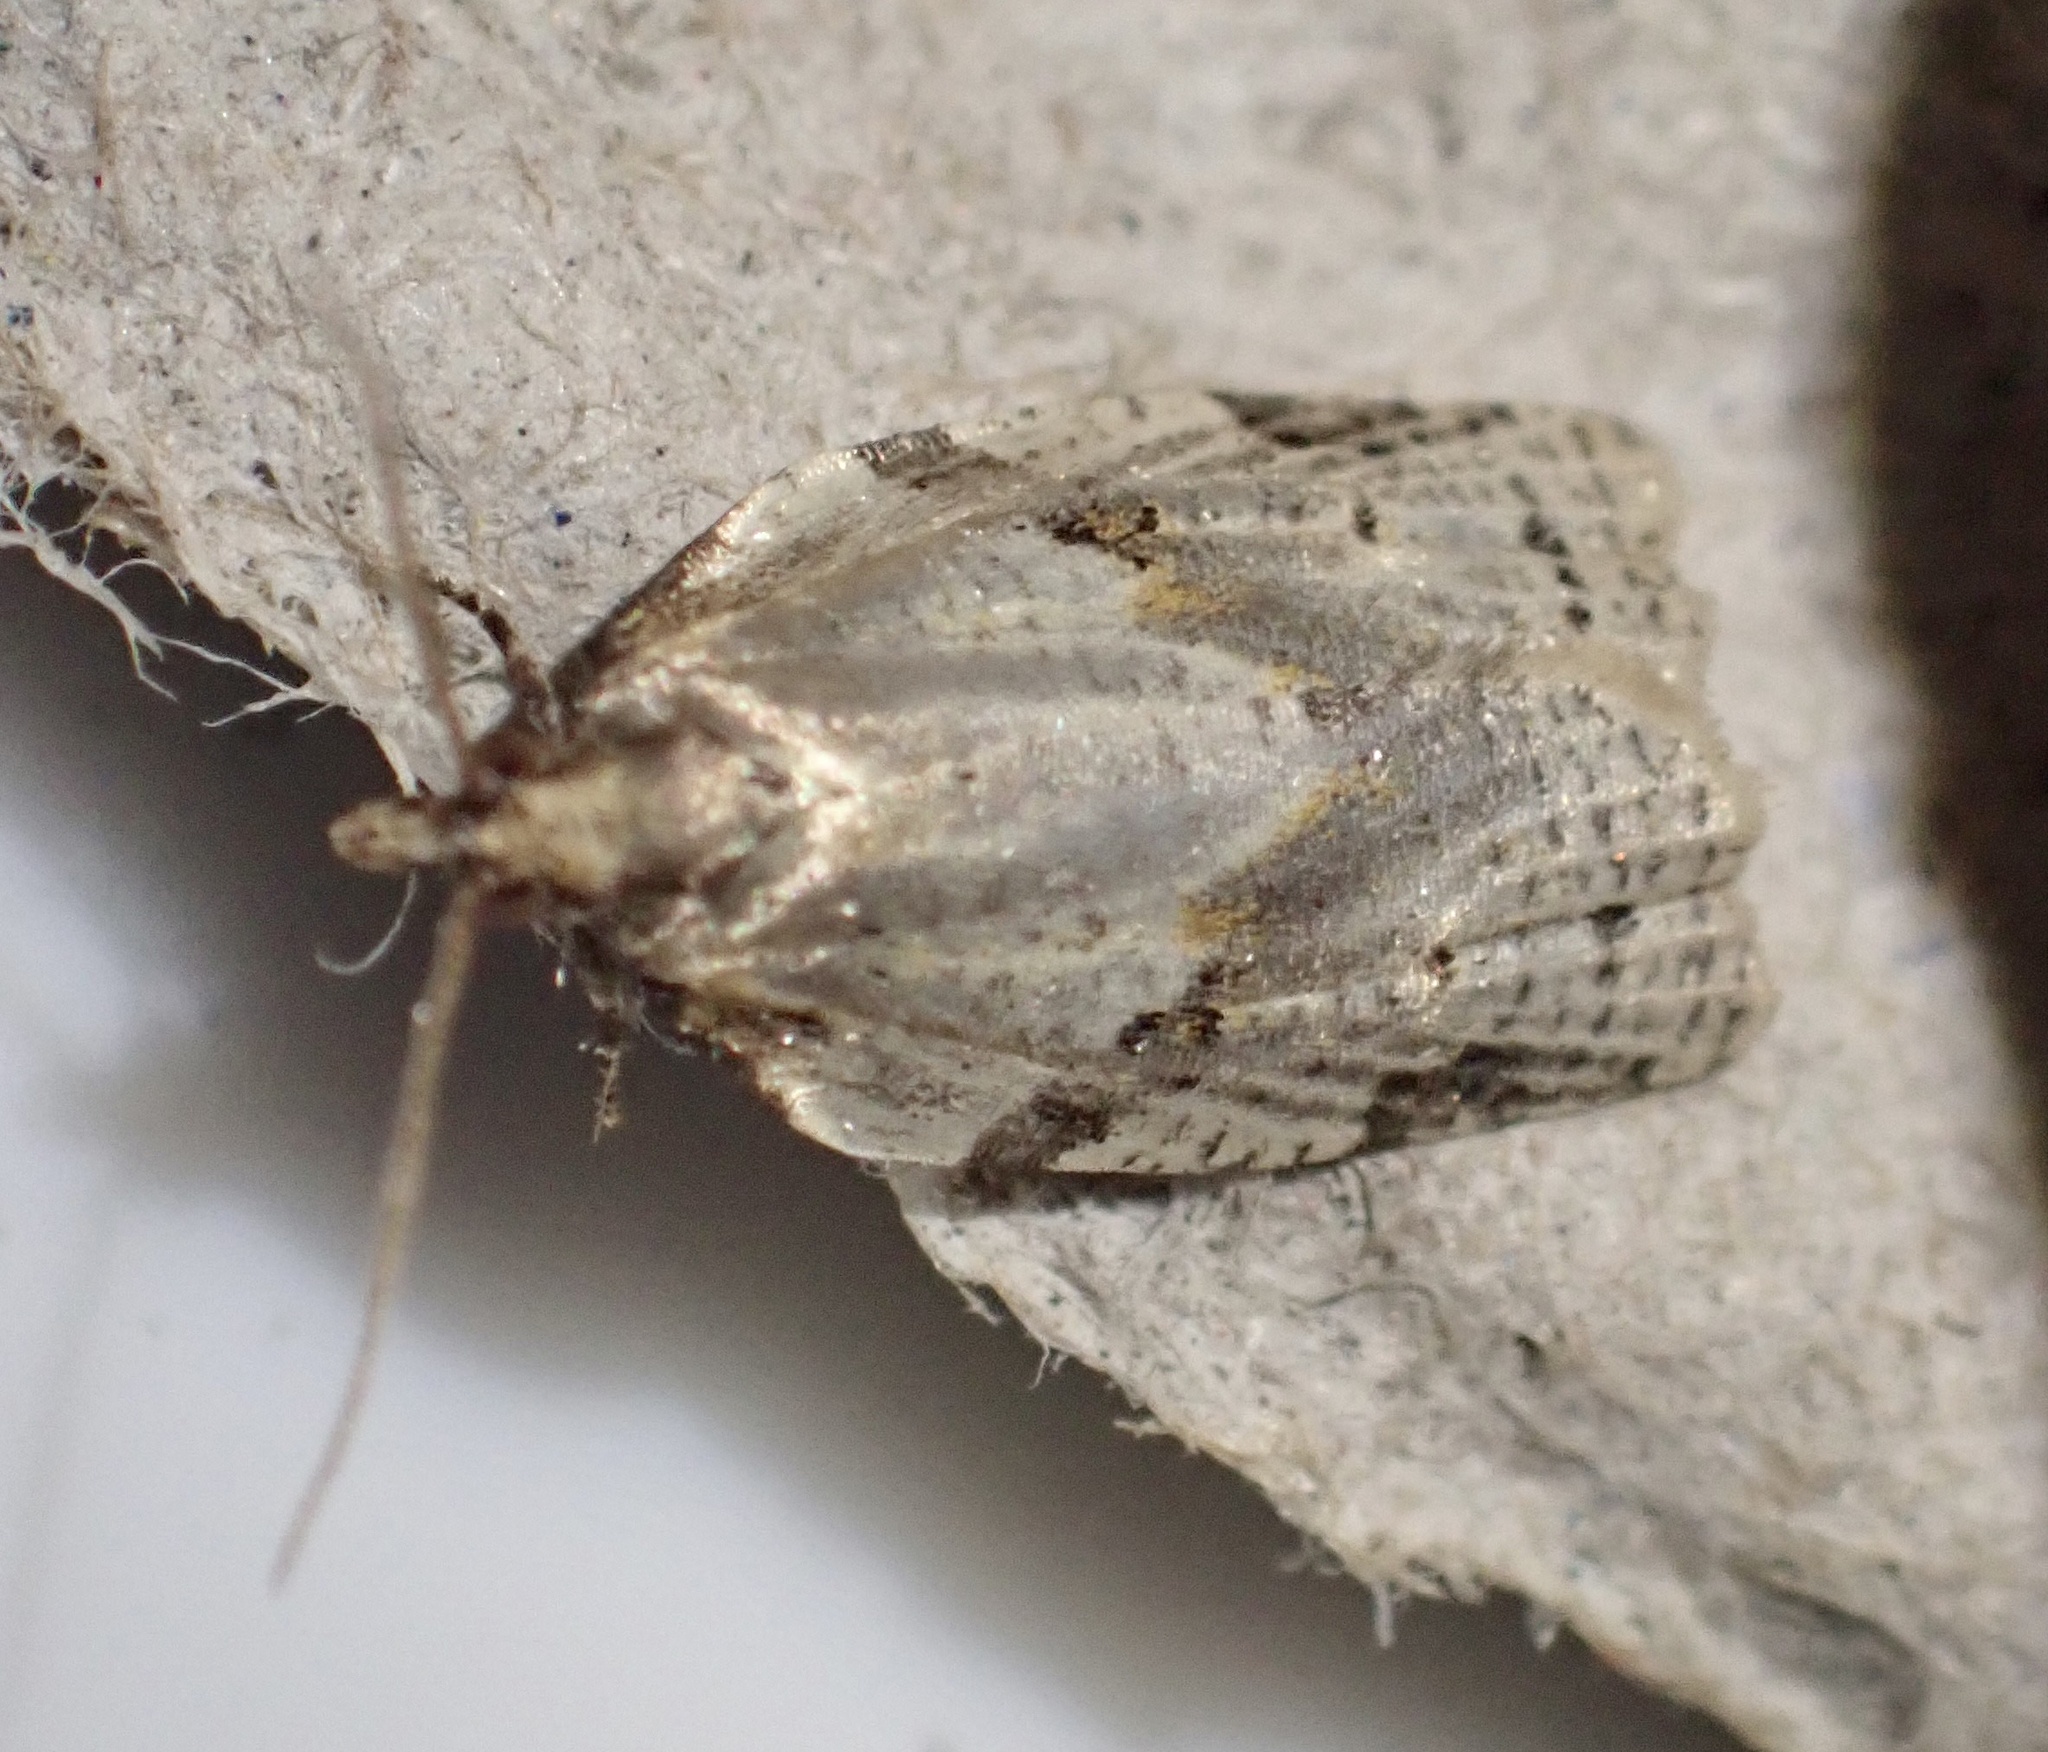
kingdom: Animalia
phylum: Arthropoda
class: Insecta
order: Lepidoptera
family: Tortricidae
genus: Clepsis
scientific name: Clepsis spectrana
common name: Cyclamen tortrix
